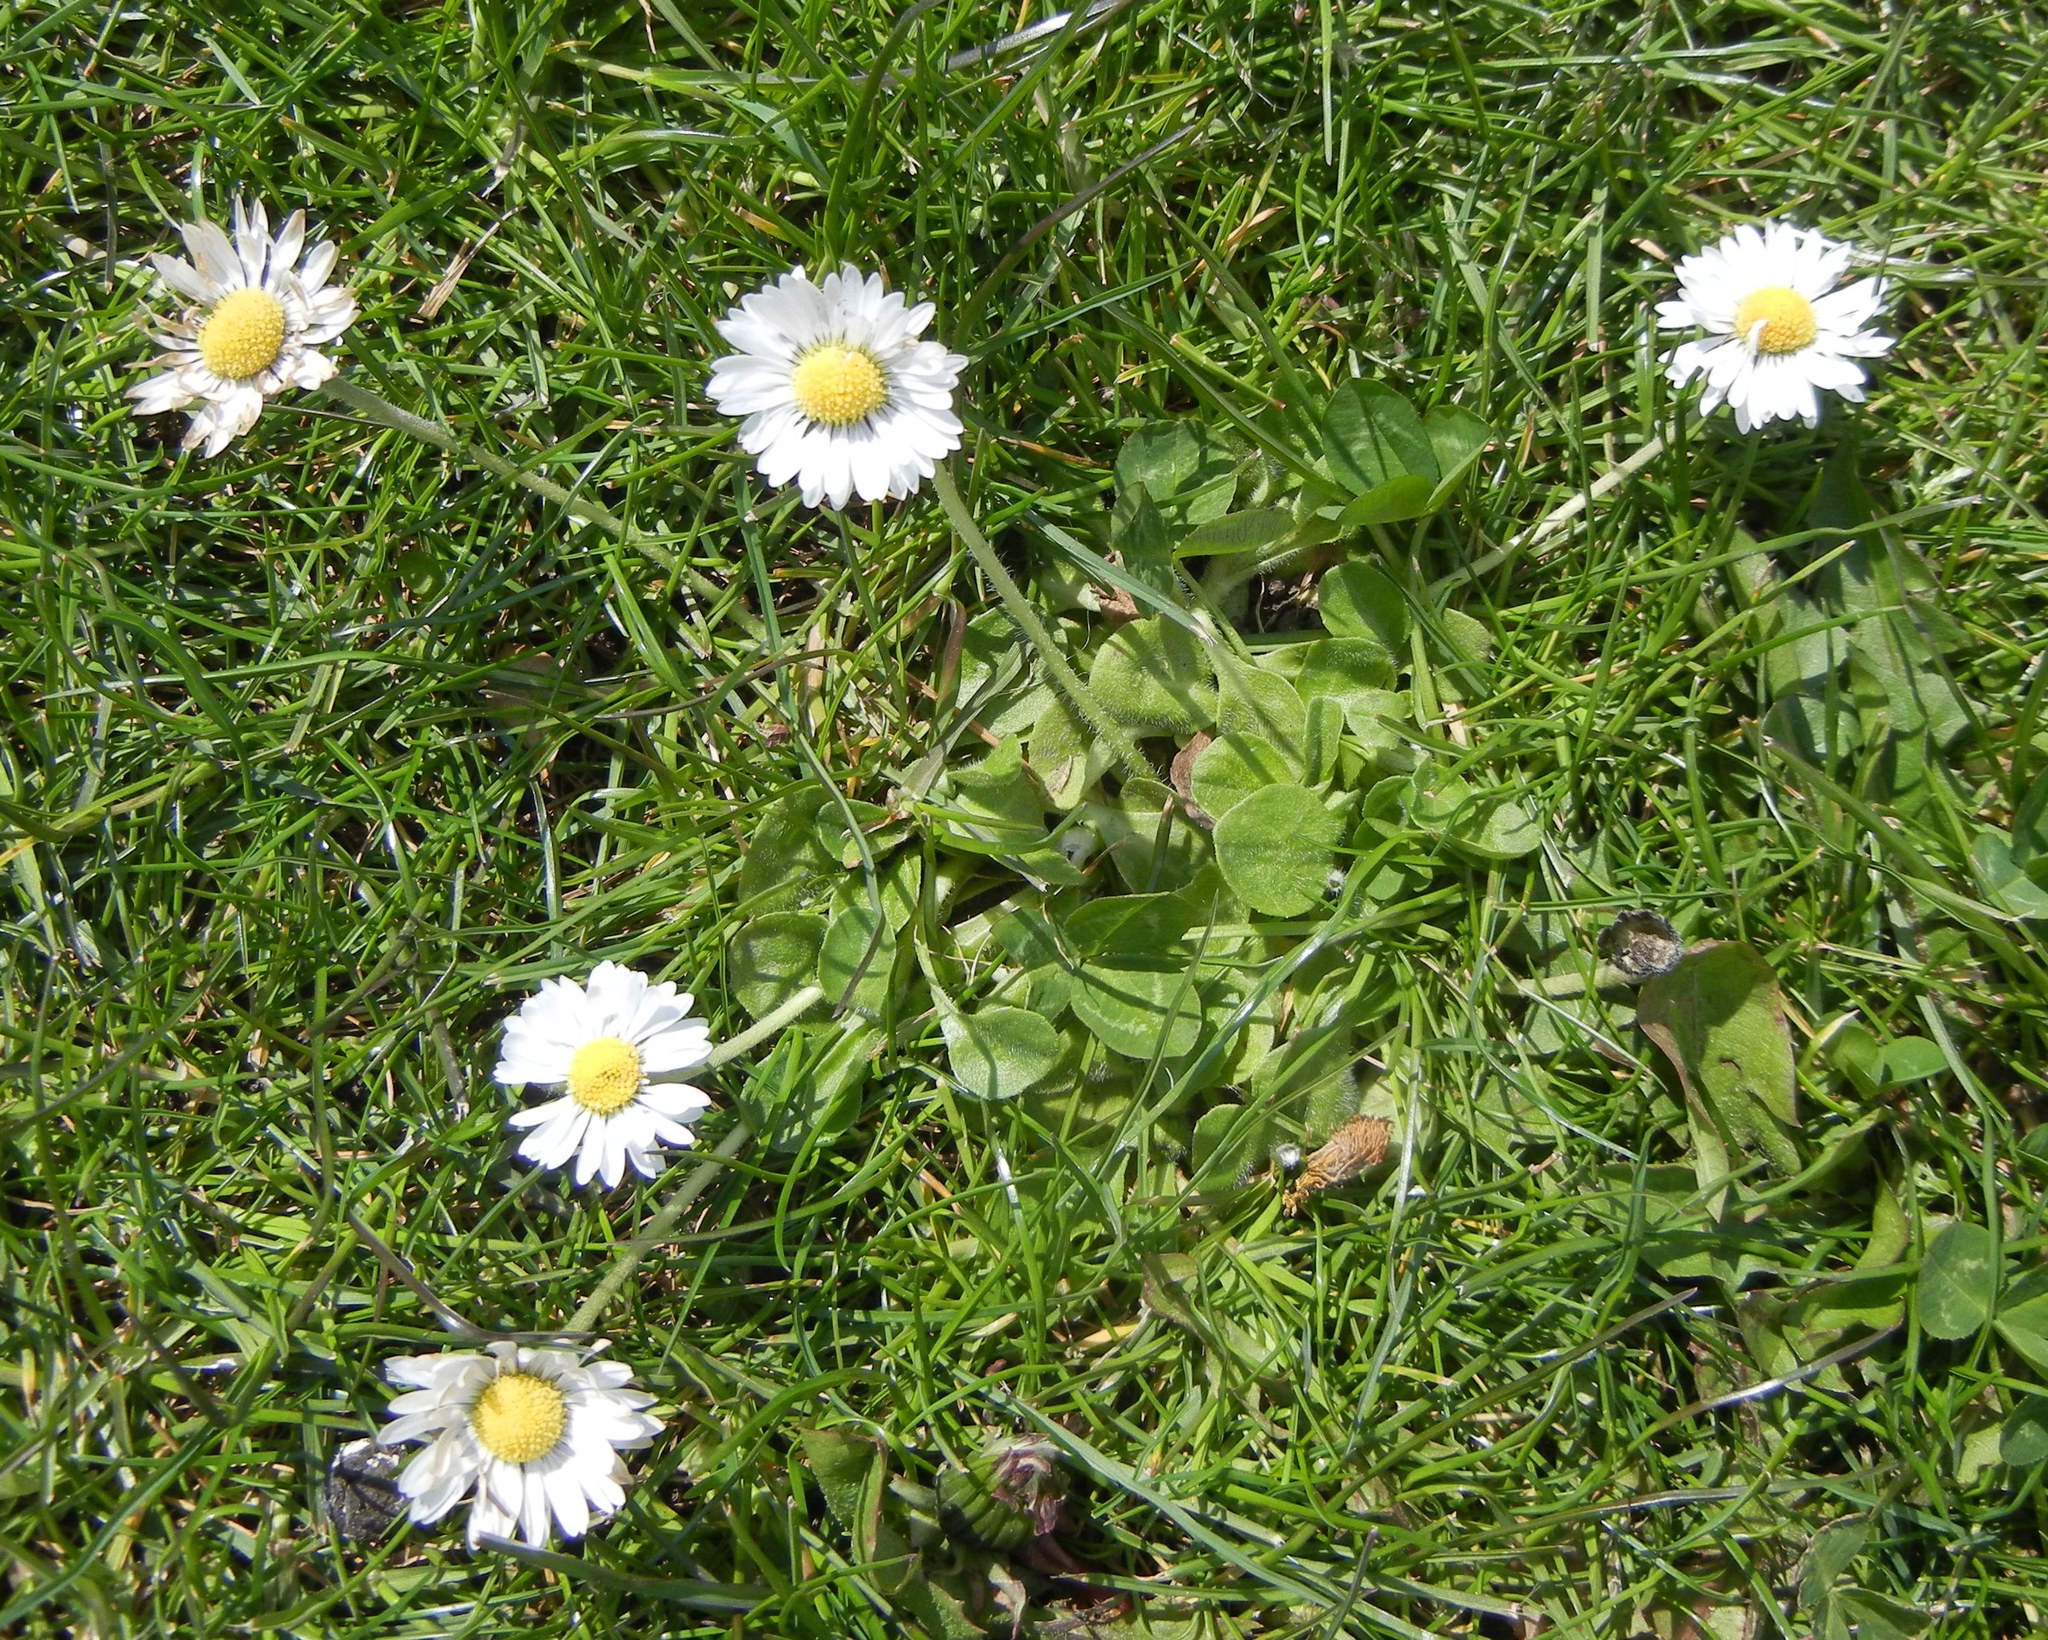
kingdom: Plantae
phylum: Tracheophyta
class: Magnoliopsida
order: Asterales
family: Asteraceae
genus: Bellis
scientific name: Bellis perennis
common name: Lawndaisy
